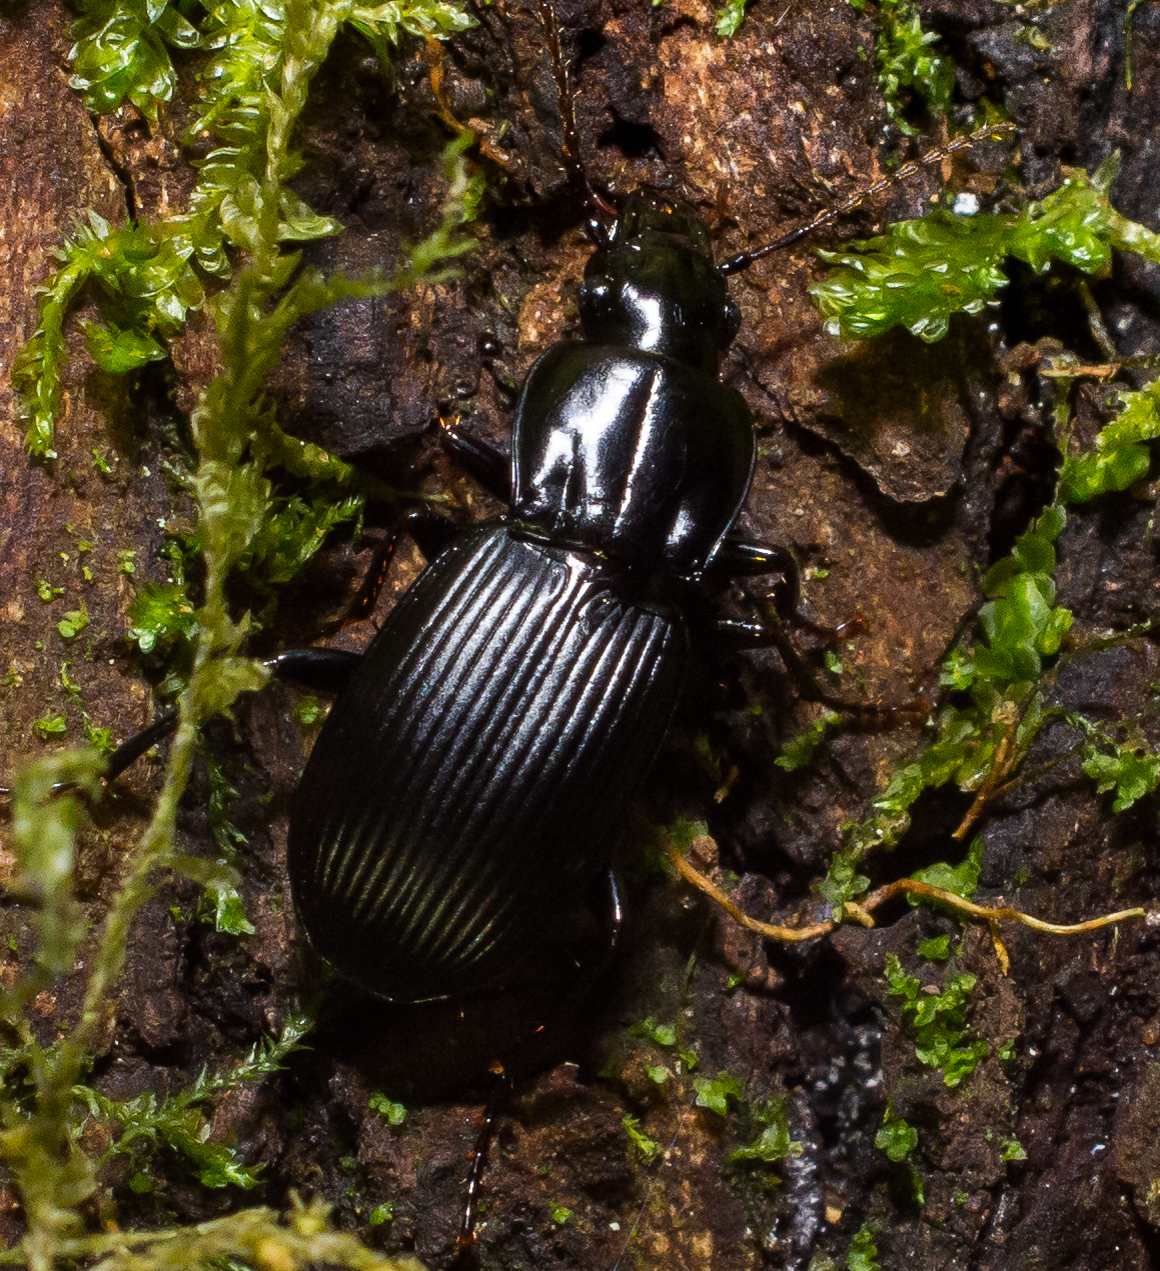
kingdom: Animalia
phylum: Arthropoda
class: Insecta
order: Coleoptera
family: Carabidae
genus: Pterostichus
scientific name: Pterostichus algidus
